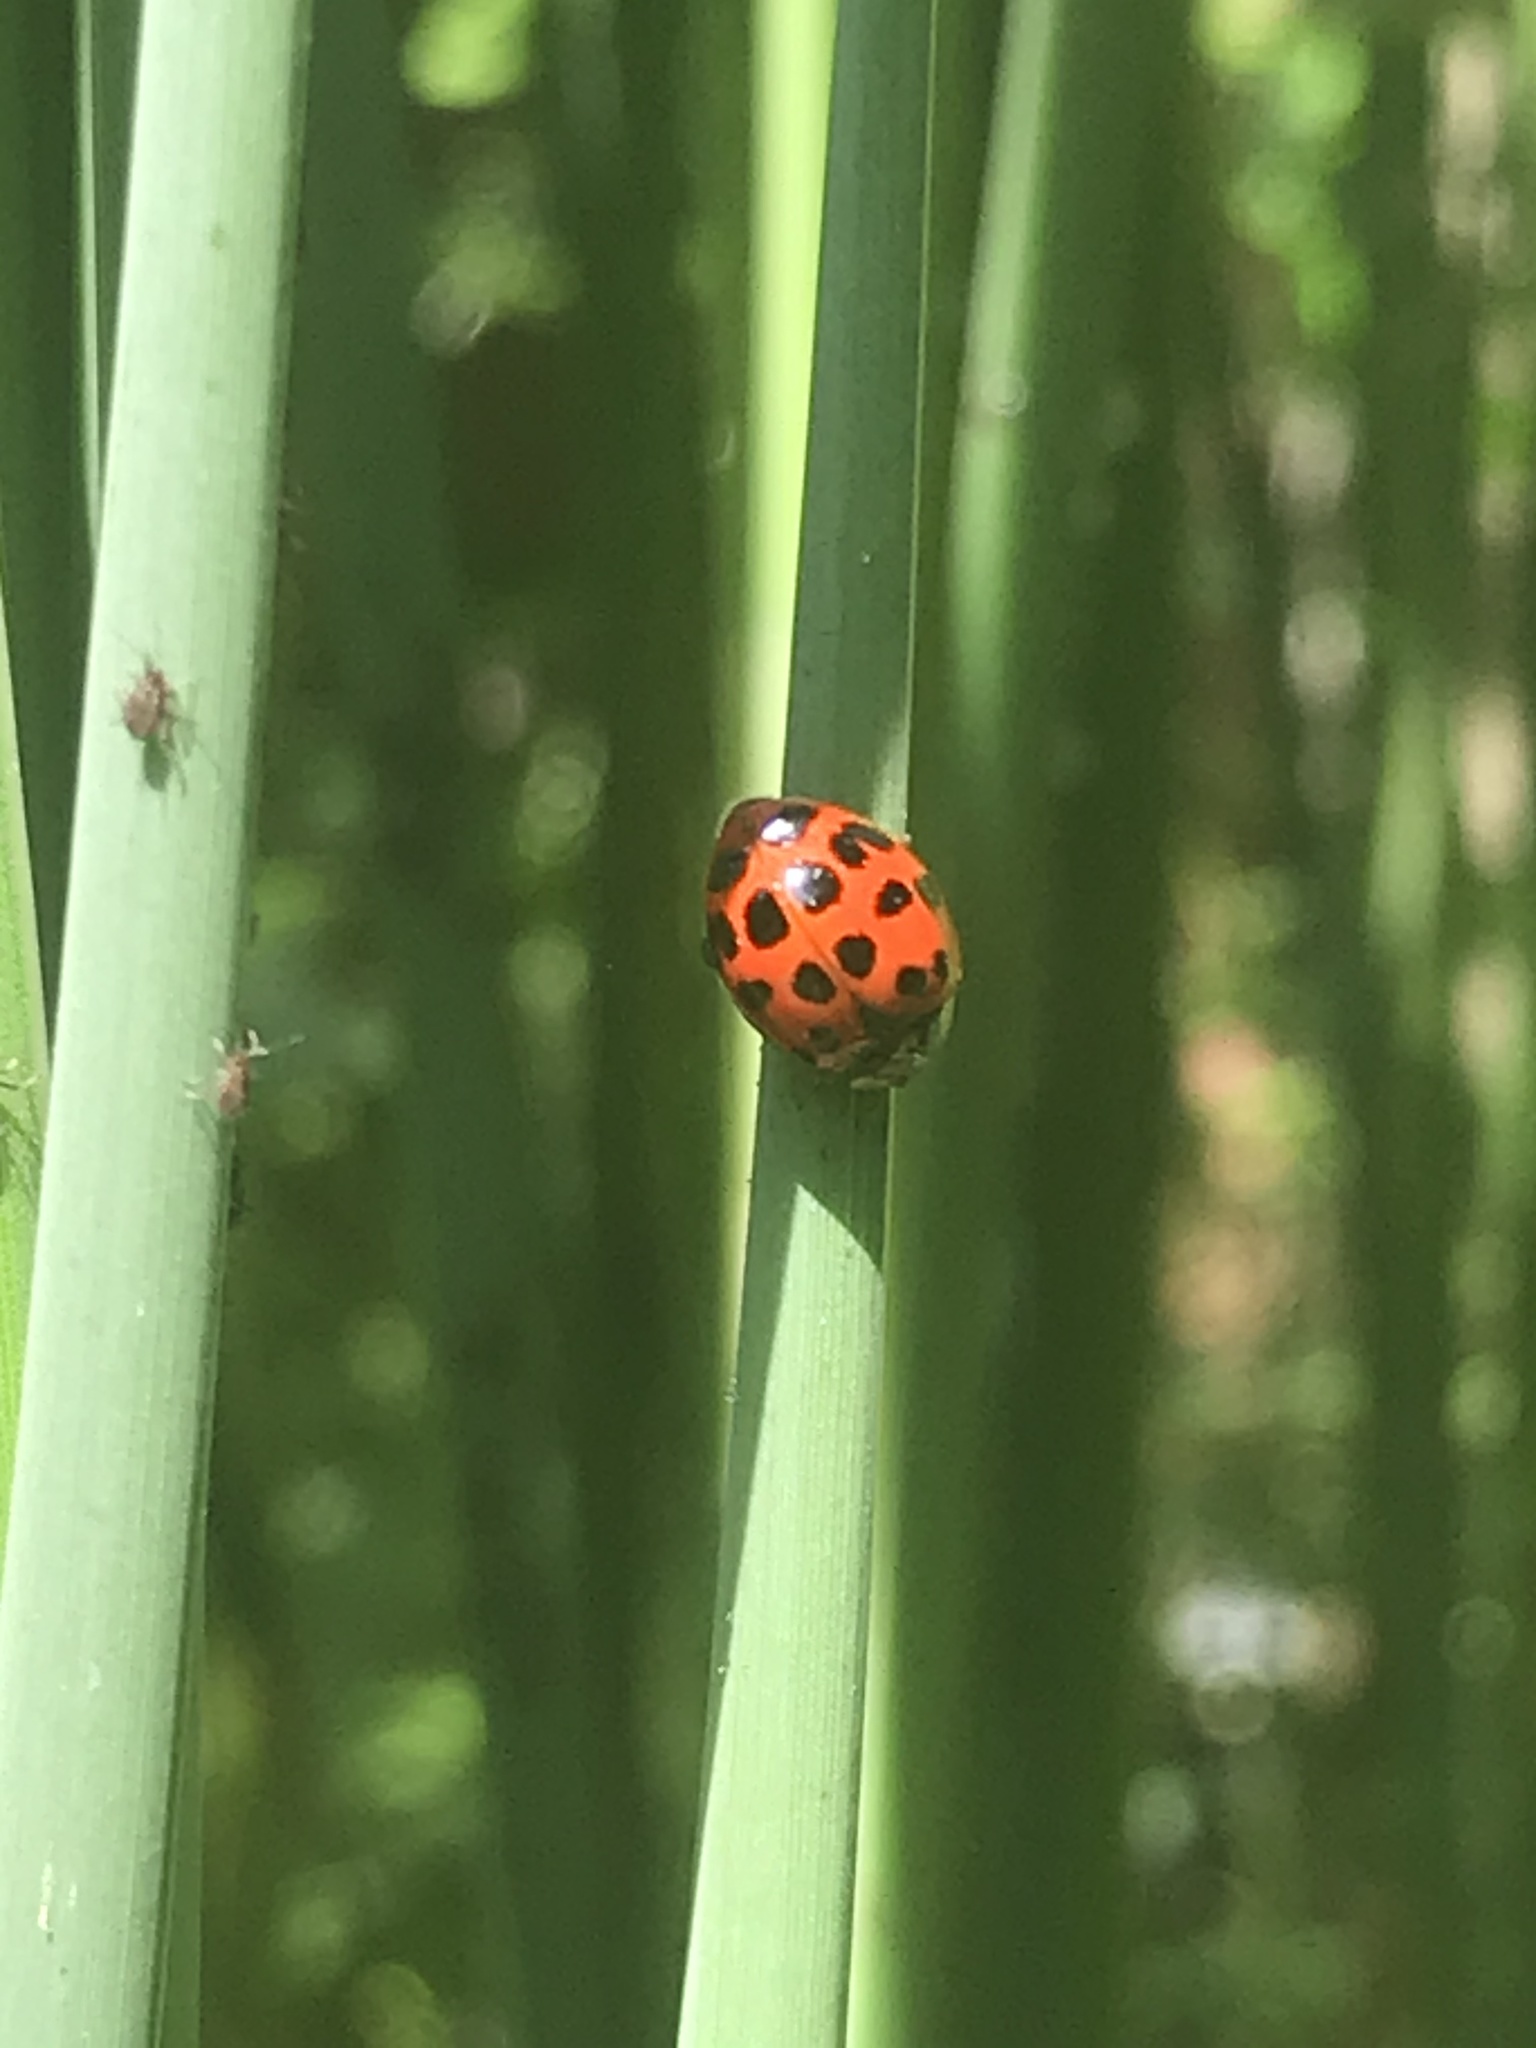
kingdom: Animalia
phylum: Arthropoda
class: Insecta
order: Coleoptera
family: Coccinellidae
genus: Harmonia
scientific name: Harmonia axyridis
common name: Harlequin ladybird
